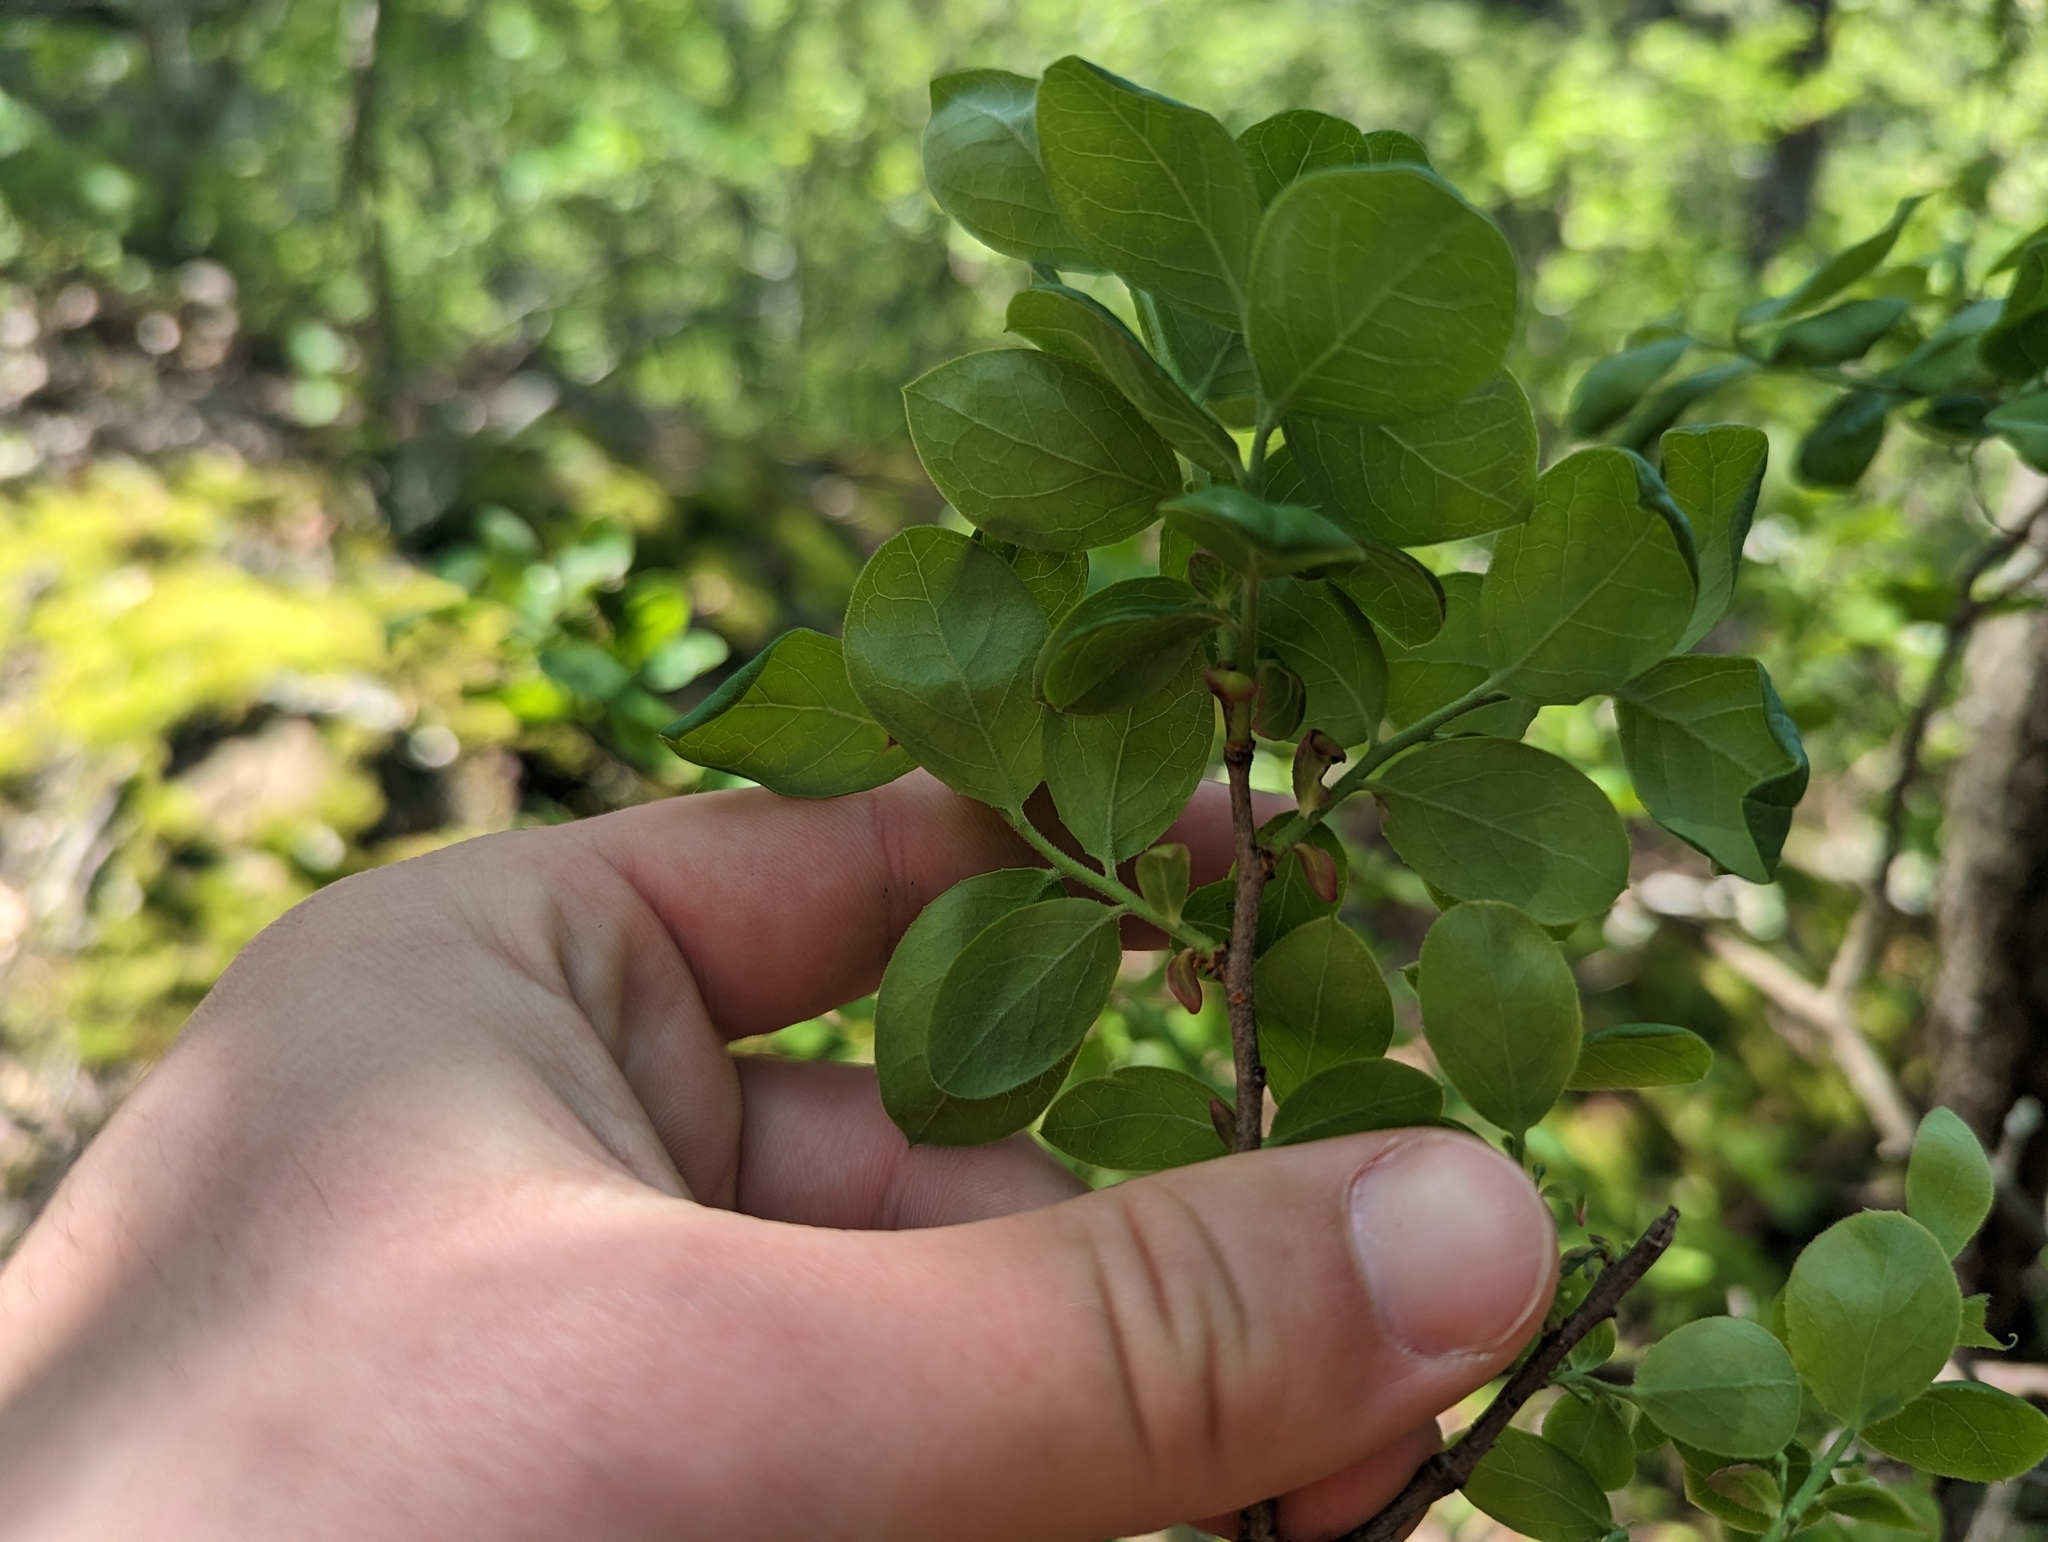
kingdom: Plantae
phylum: Tracheophyta
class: Magnoliopsida
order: Ericales
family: Ericaceae
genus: Vaccinium
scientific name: Vaccinium arboreum
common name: Farkleberry
